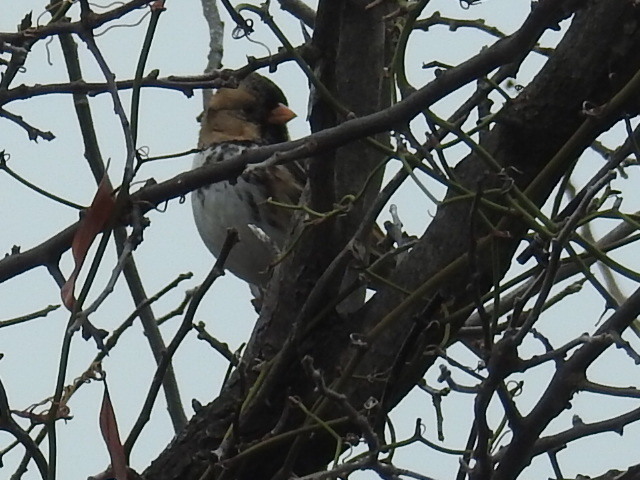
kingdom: Animalia
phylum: Chordata
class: Aves
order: Passeriformes
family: Passerellidae
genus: Zonotrichia
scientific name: Zonotrichia querula
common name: Harris's sparrow
